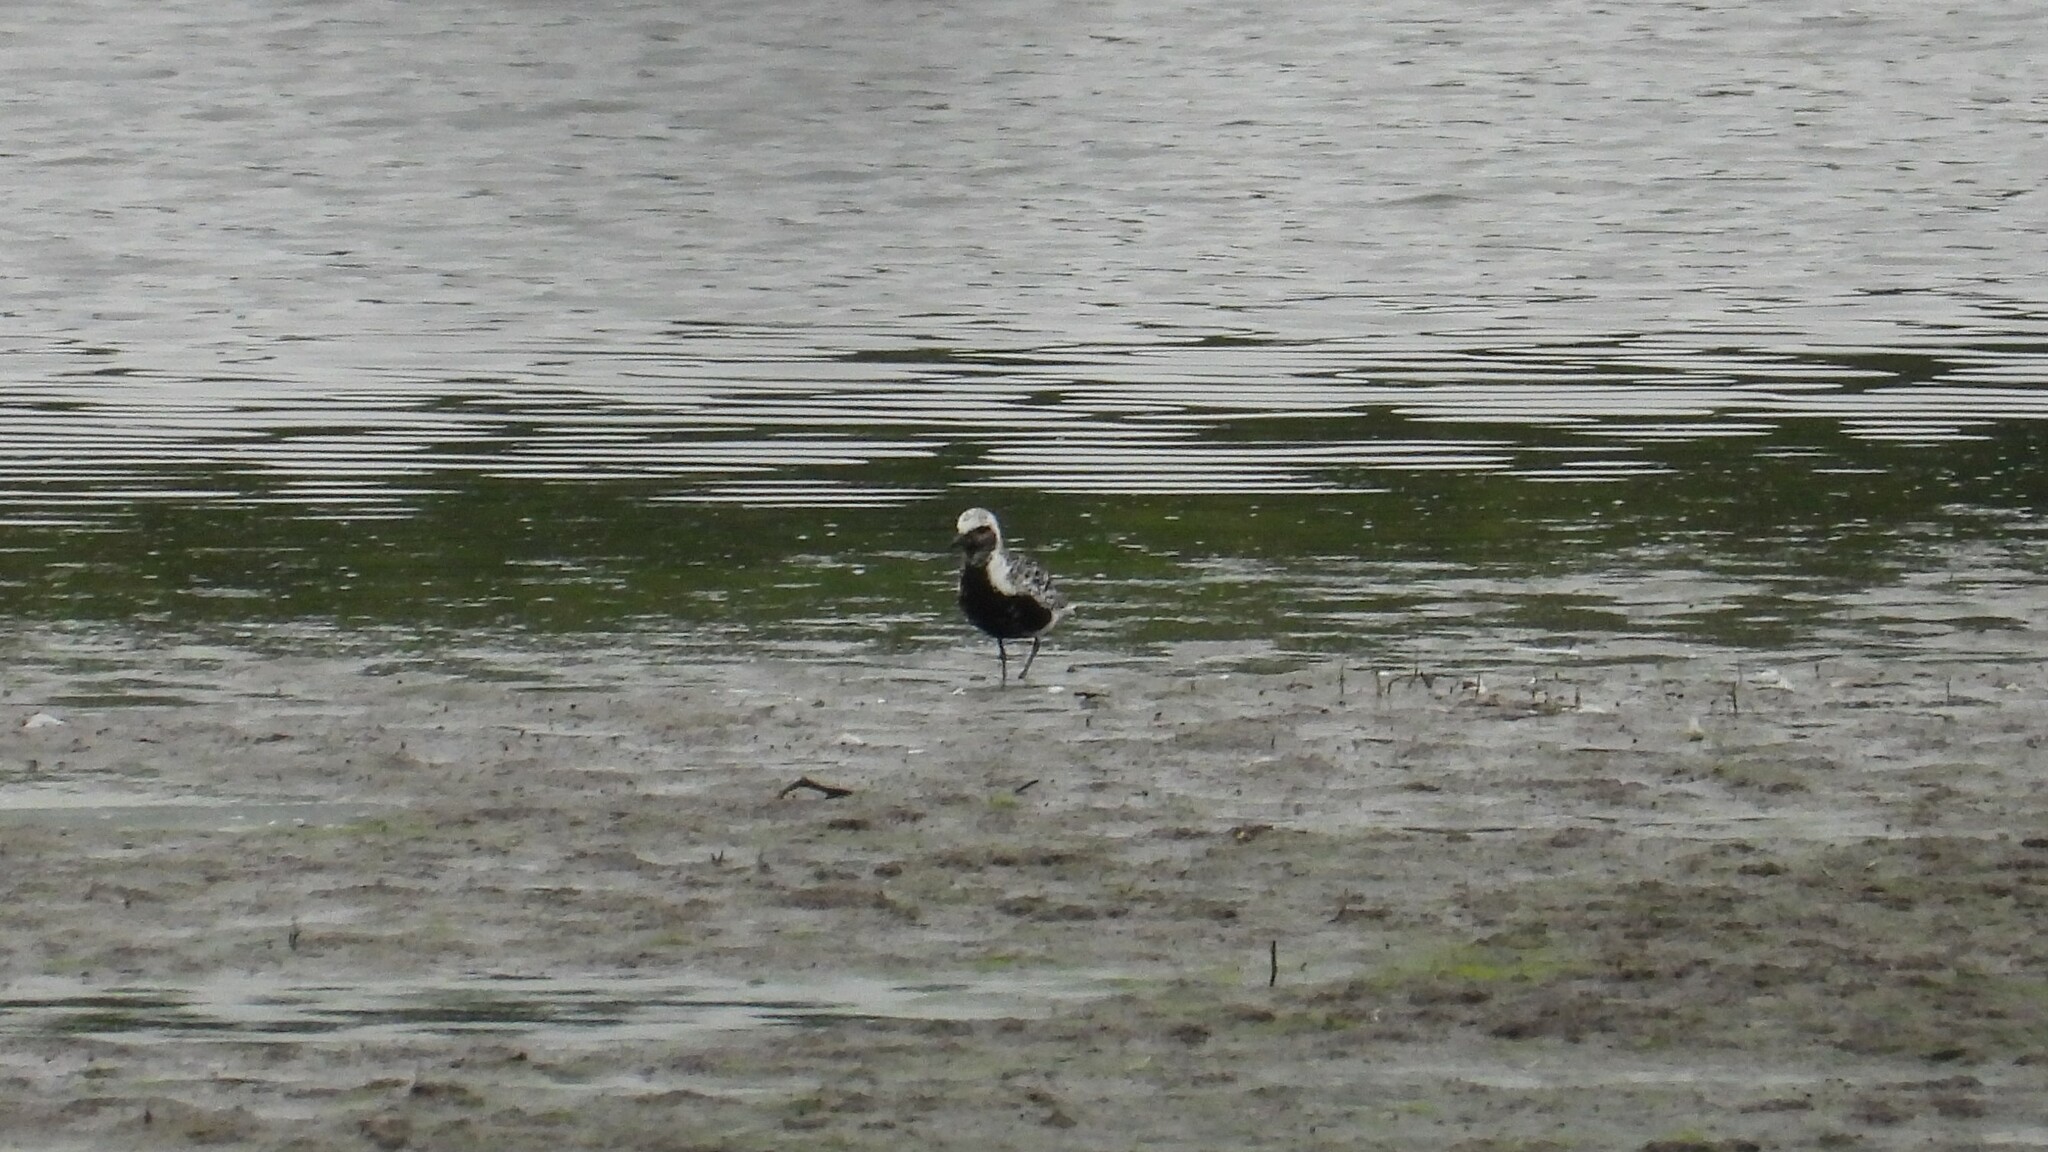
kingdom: Animalia
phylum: Chordata
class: Aves
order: Charadriiformes
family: Charadriidae
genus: Pluvialis
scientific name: Pluvialis squatarola
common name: Grey plover
